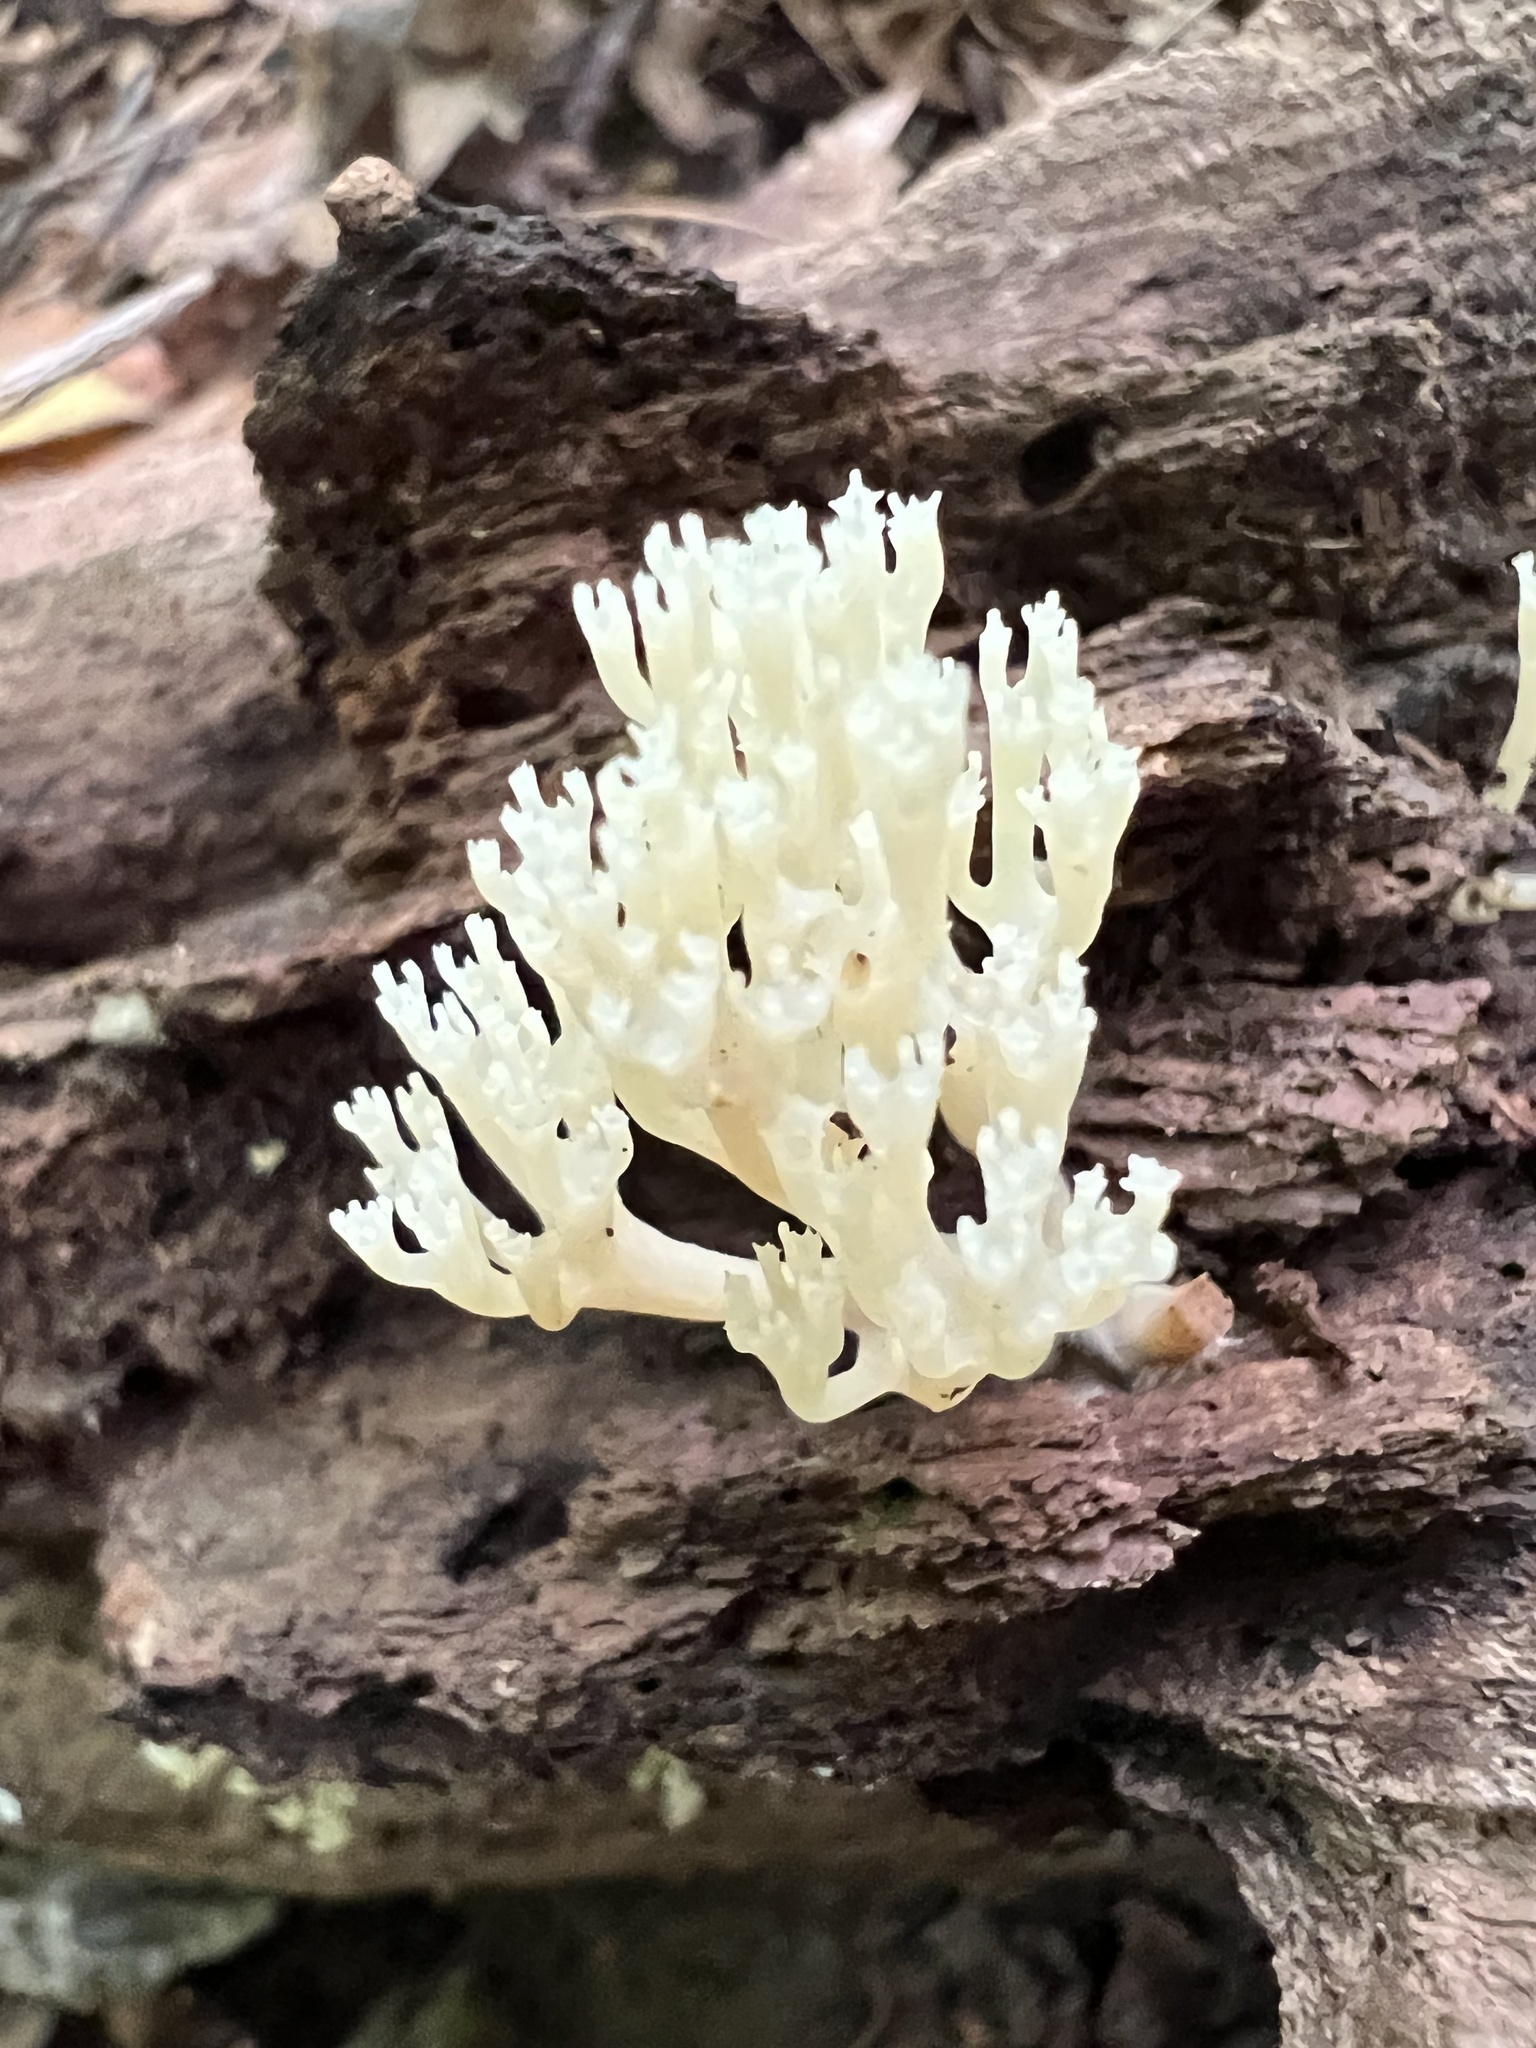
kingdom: Fungi
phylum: Basidiomycota
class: Agaricomycetes
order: Russulales
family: Auriscalpiaceae
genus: Artomyces
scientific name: Artomyces pyxidatus
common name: Crown-tipped coral fungus
